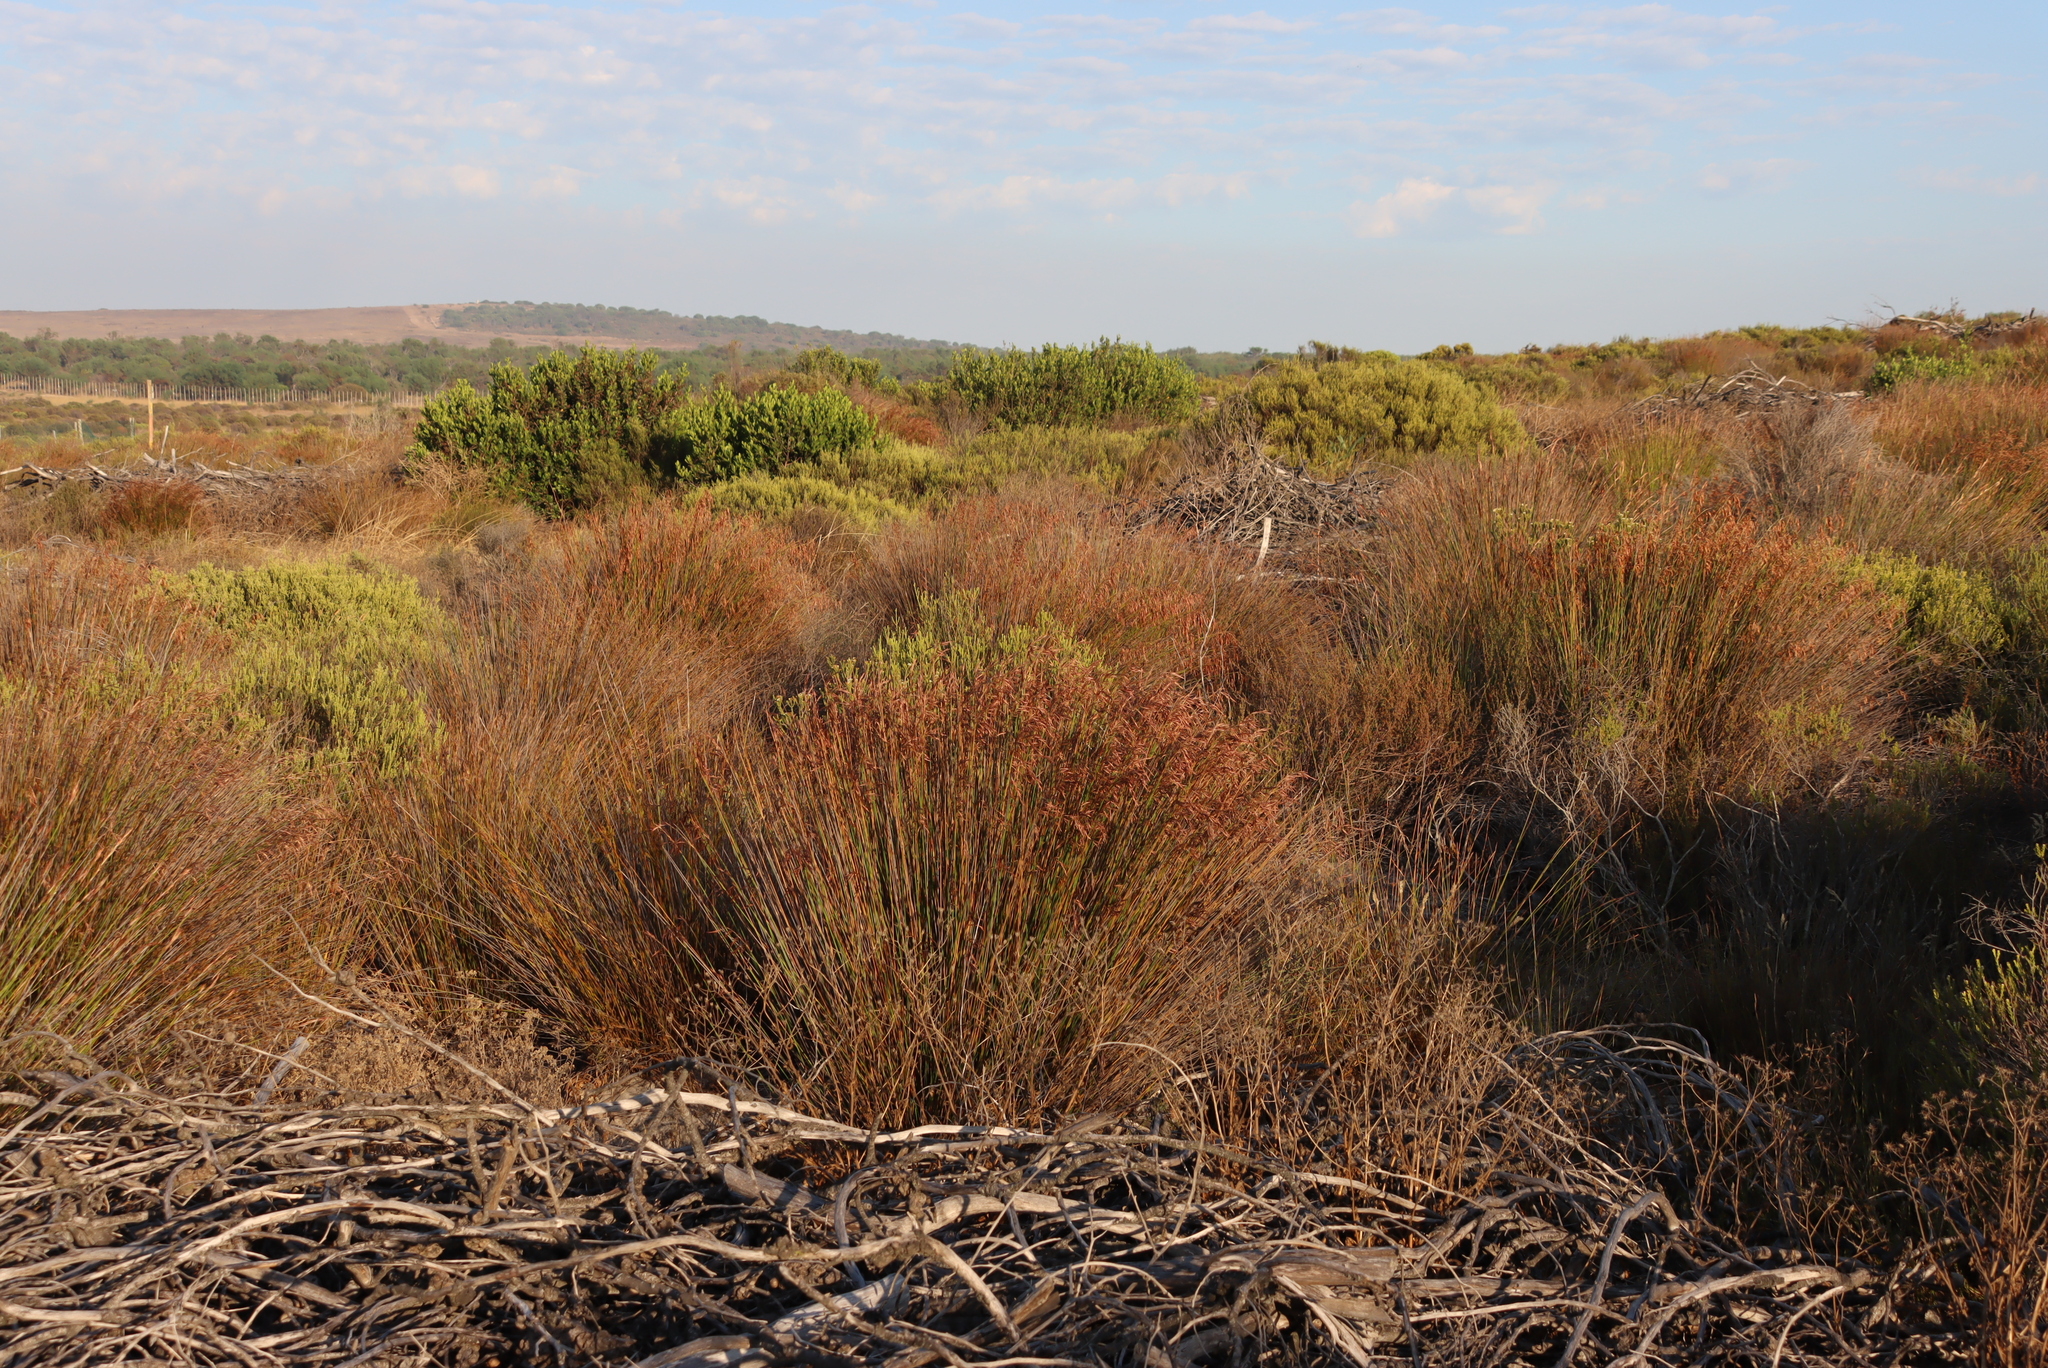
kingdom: Plantae
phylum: Tracheophyta
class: Magnoliopsida
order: Fabales
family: Fabaceae
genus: Acacia
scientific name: Acacia saligna
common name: Orange wattle
